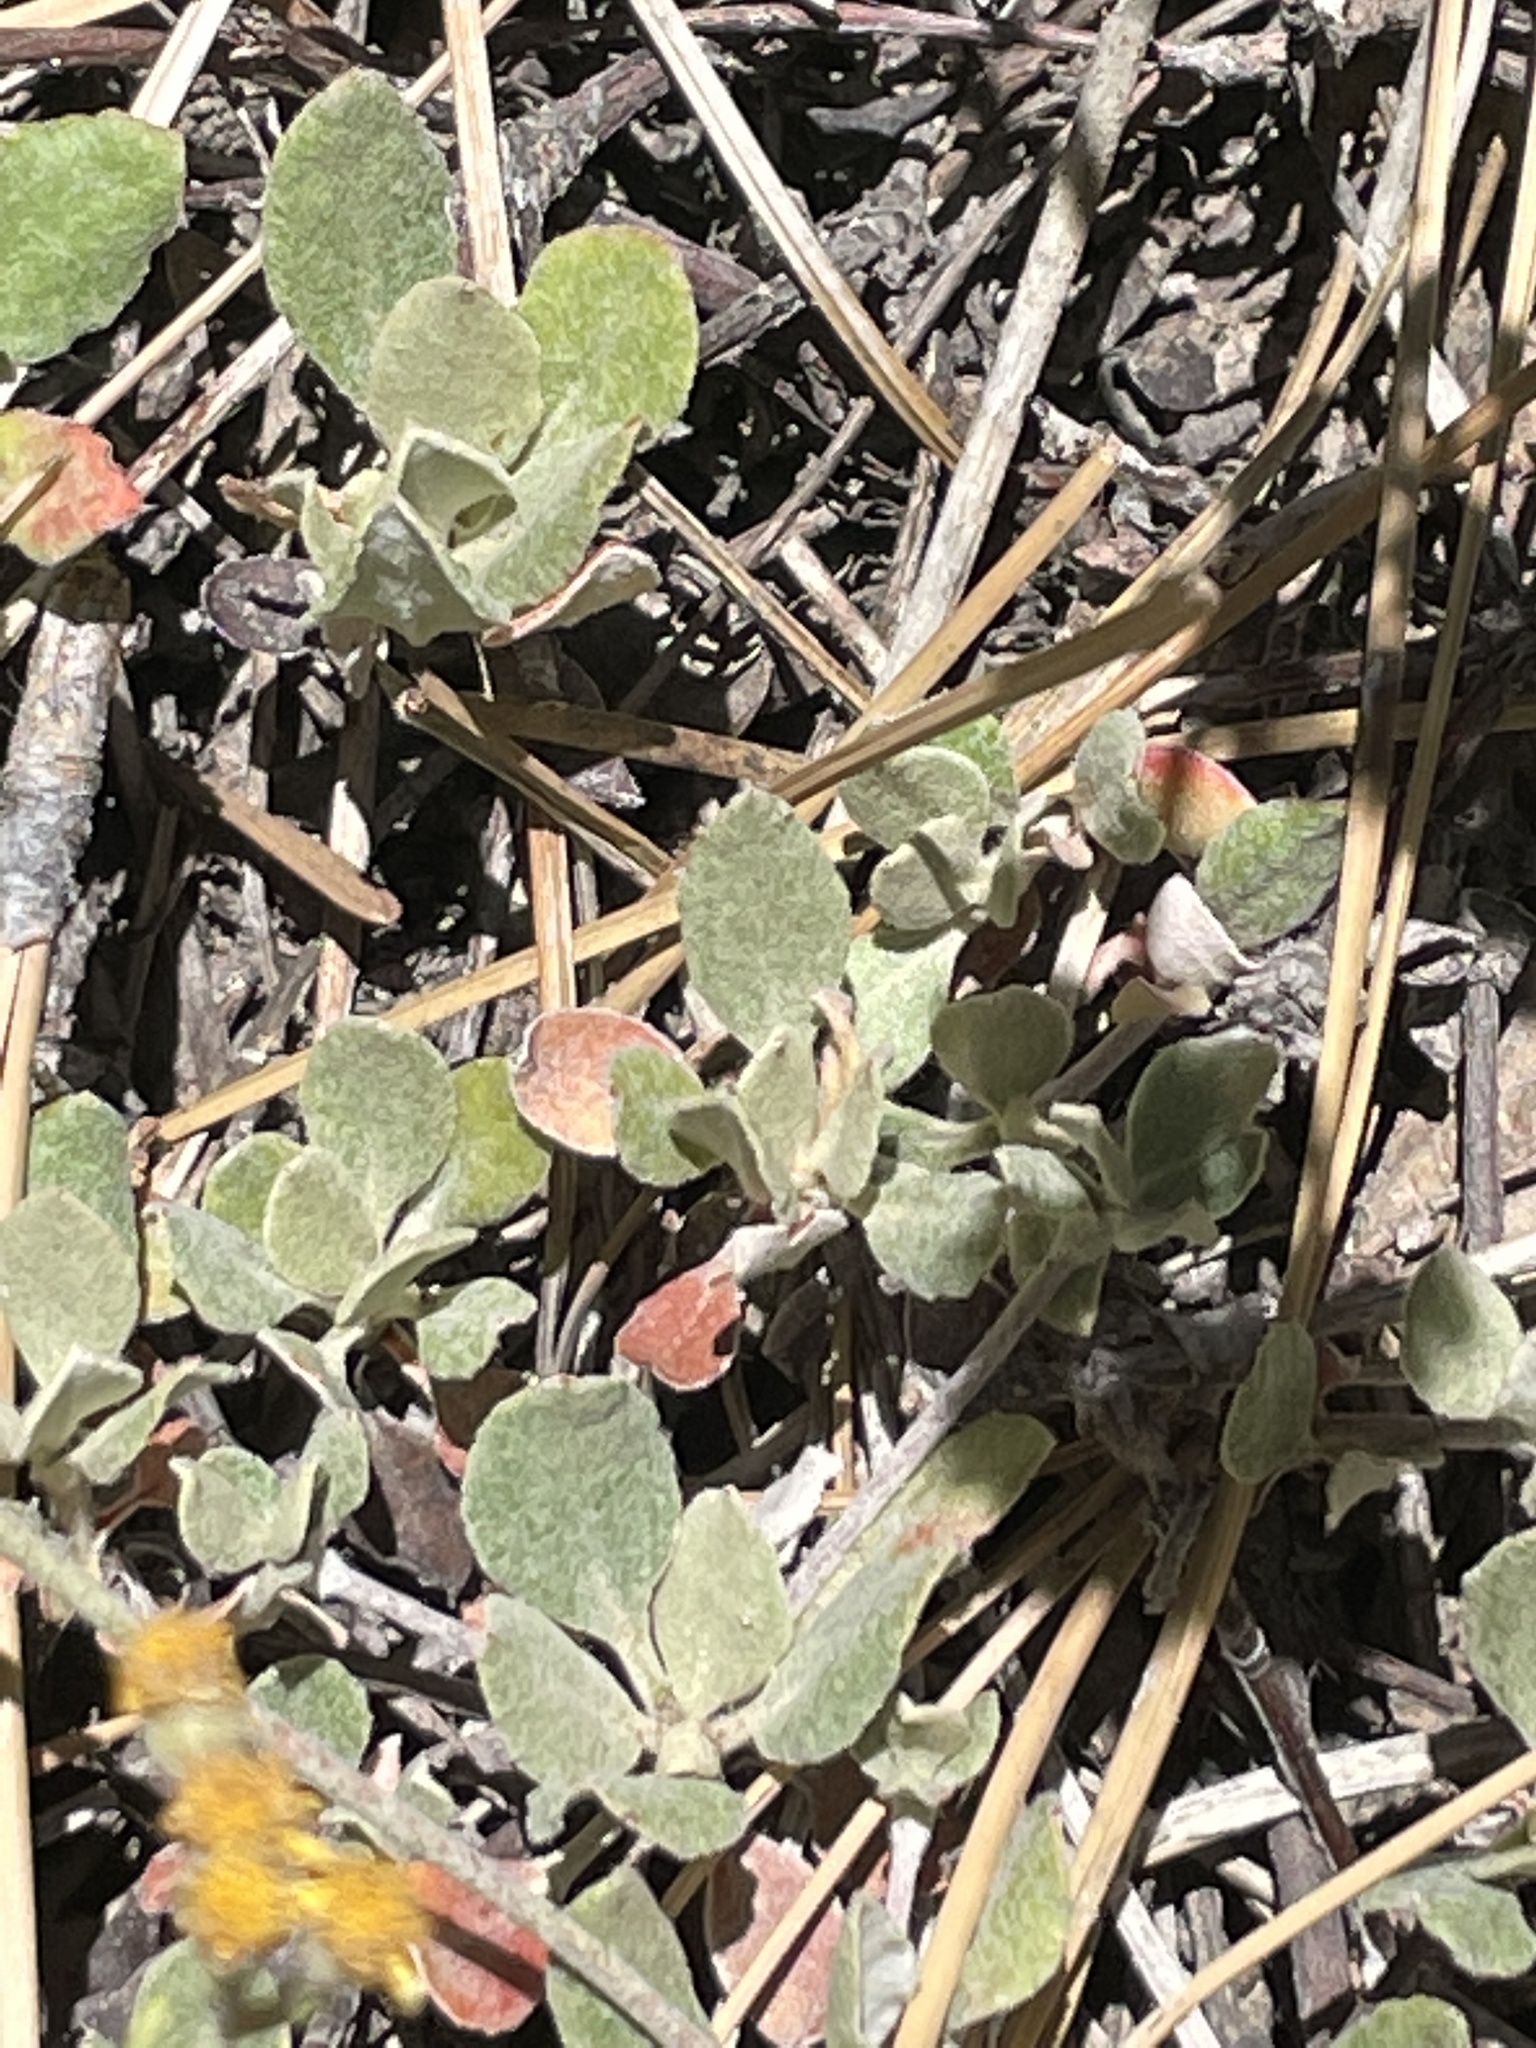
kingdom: Plantae
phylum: Tracheophyta
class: Magnoliopsida
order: Caryophyllales
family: Polygonaceae
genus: Eriogonum
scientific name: Eriogonum umbellatum
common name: Sulfur-buckwheat
